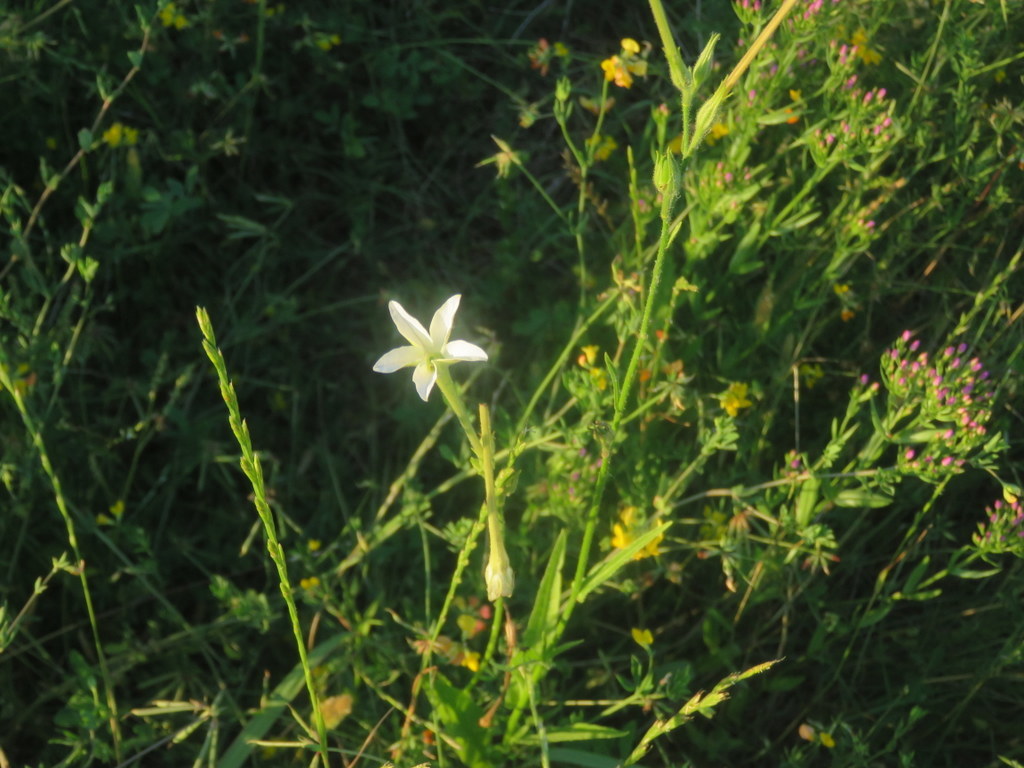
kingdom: Plantae
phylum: Tracheophyta
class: Magnoliopsida
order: Solanales
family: Solanaceae
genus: Nicotiana
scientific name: Nicotiana longiflora
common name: Long-flowered tobacco
